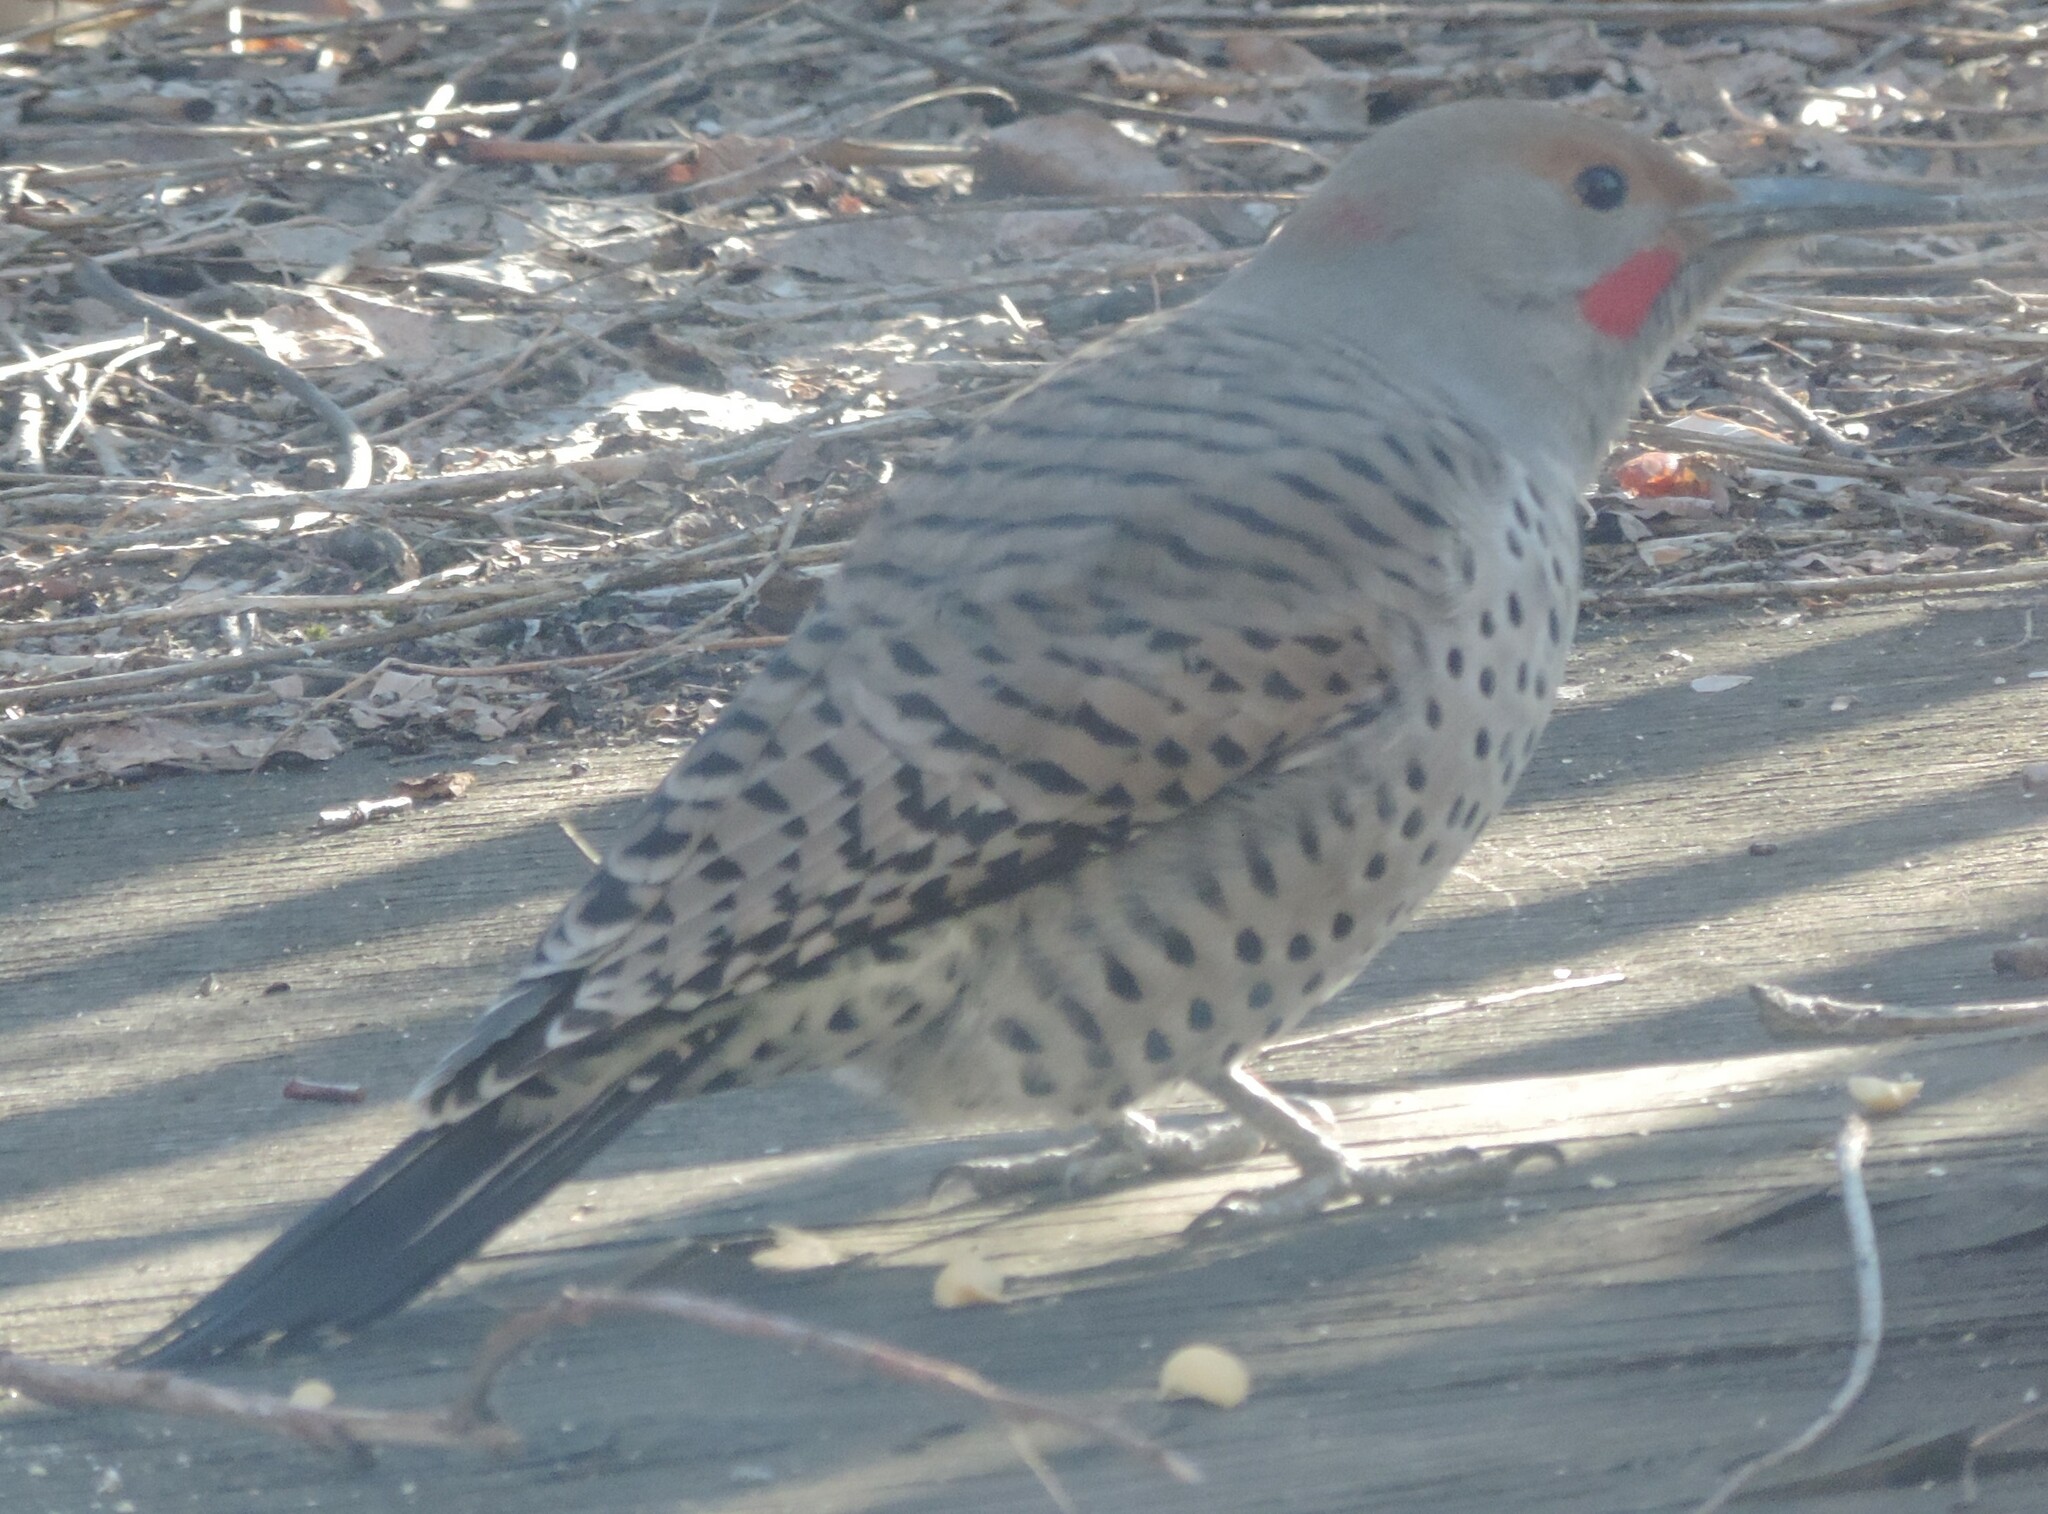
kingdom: Animalia
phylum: Chordata
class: Aves
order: Piciformes
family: Picidae
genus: Colaptes
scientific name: Colaptes
